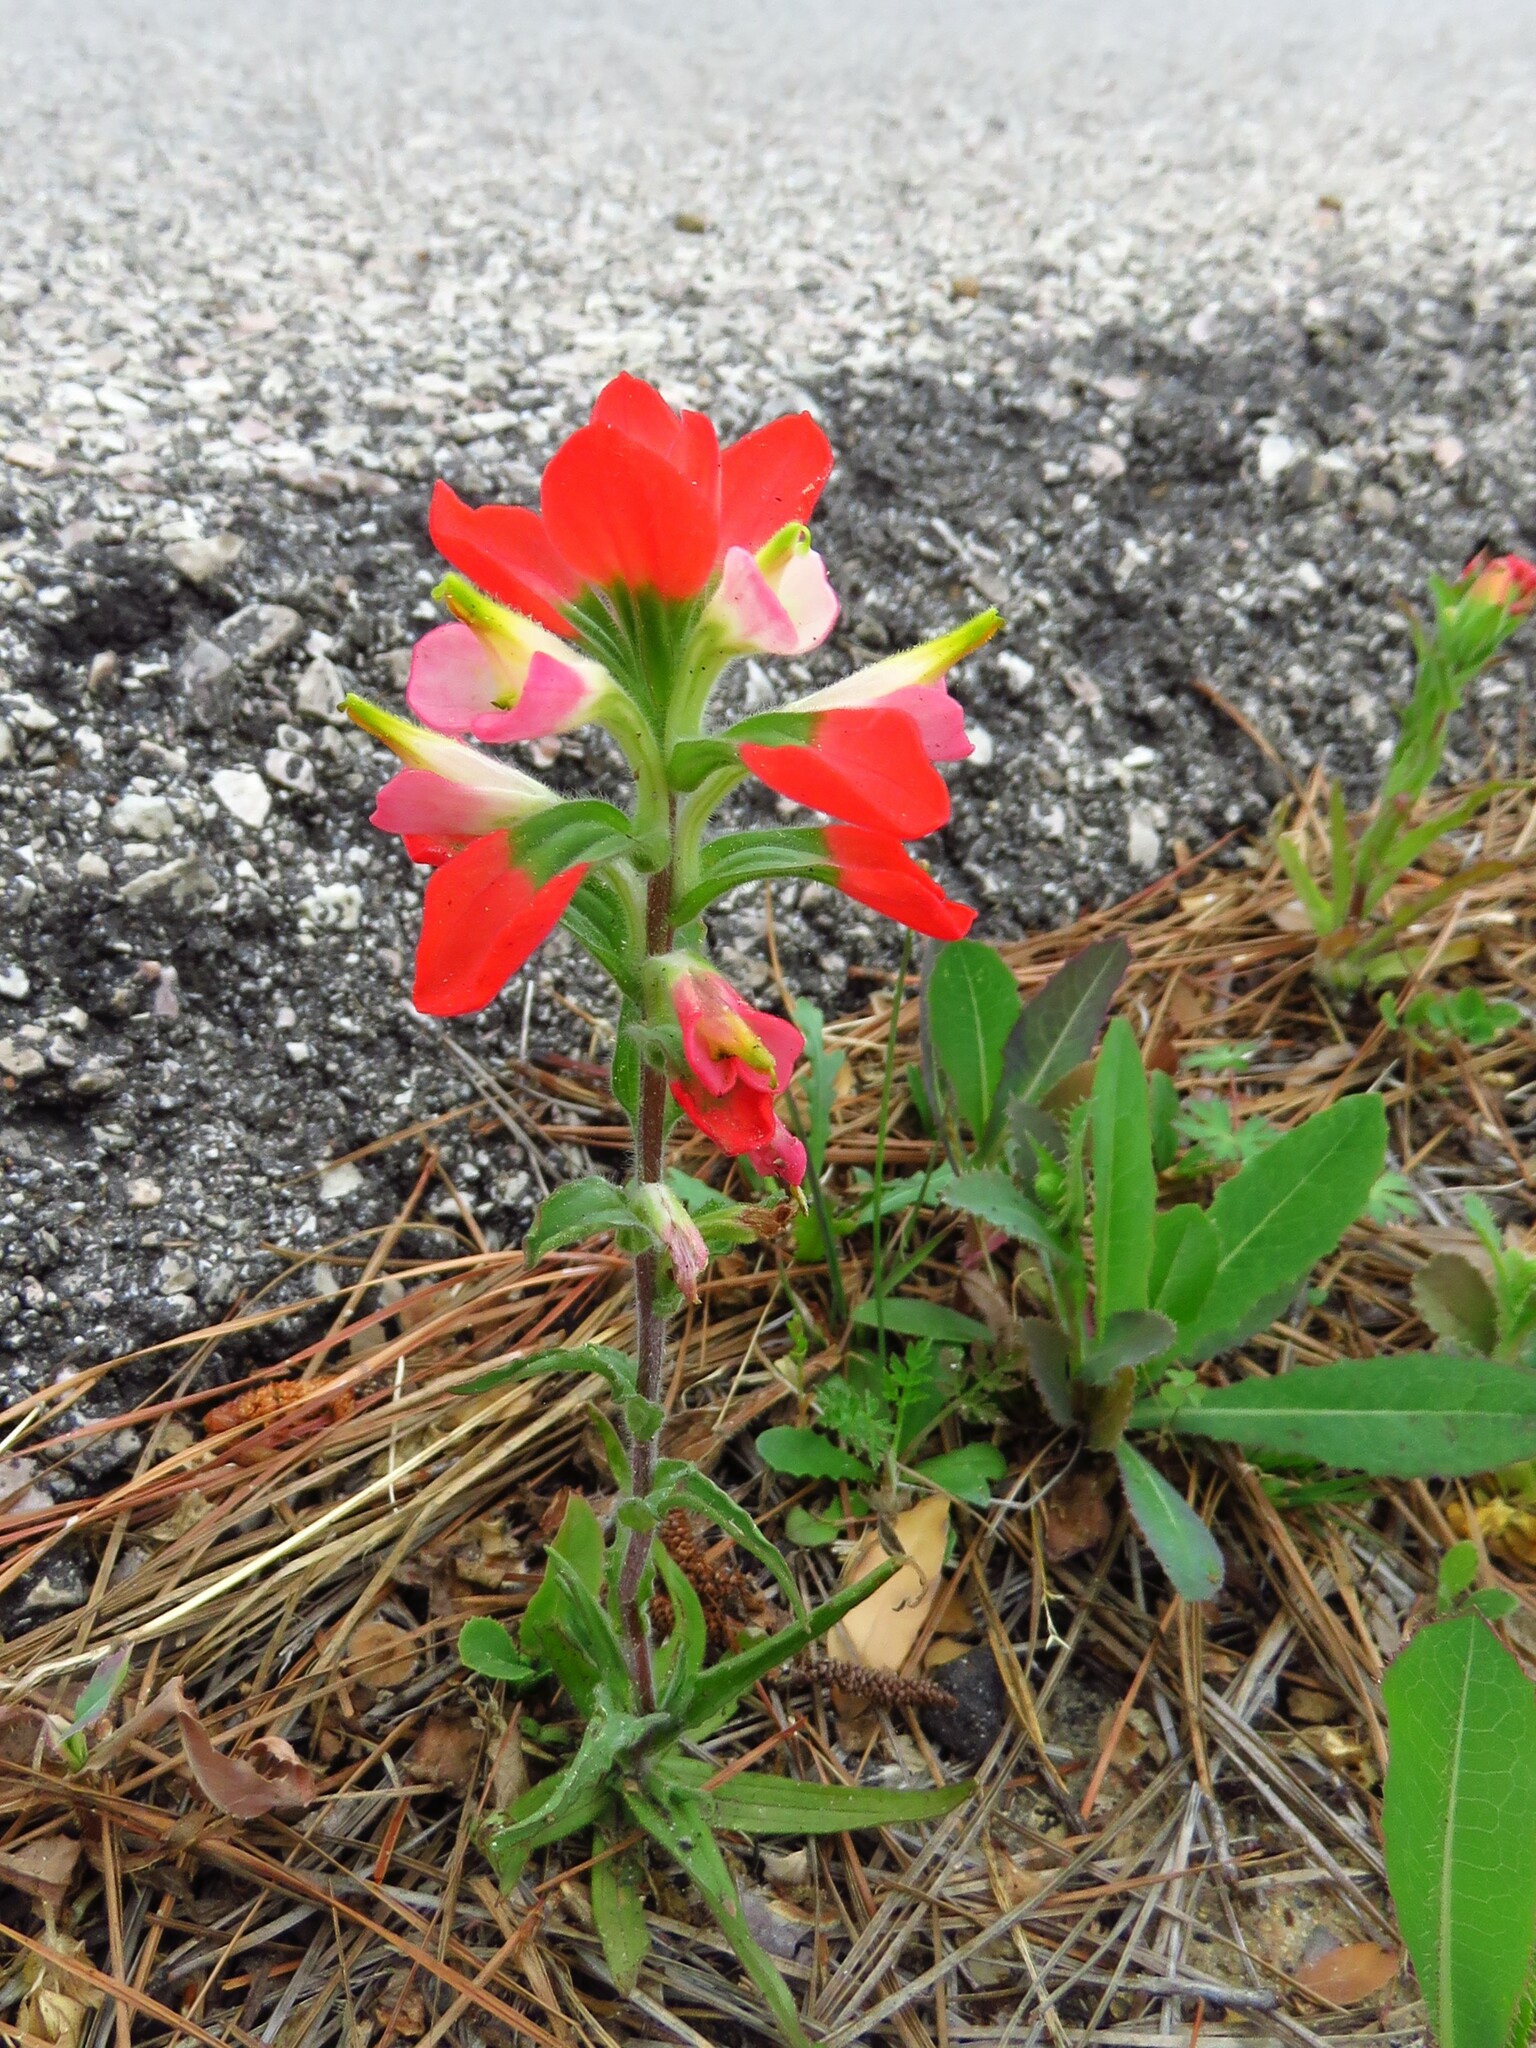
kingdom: Plantae
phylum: Tracheophyta
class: Magnoliopsida
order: Lamiales
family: Orobanchaceae
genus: Castilleja
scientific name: Castilleja indivisa
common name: Texas paintbrush
